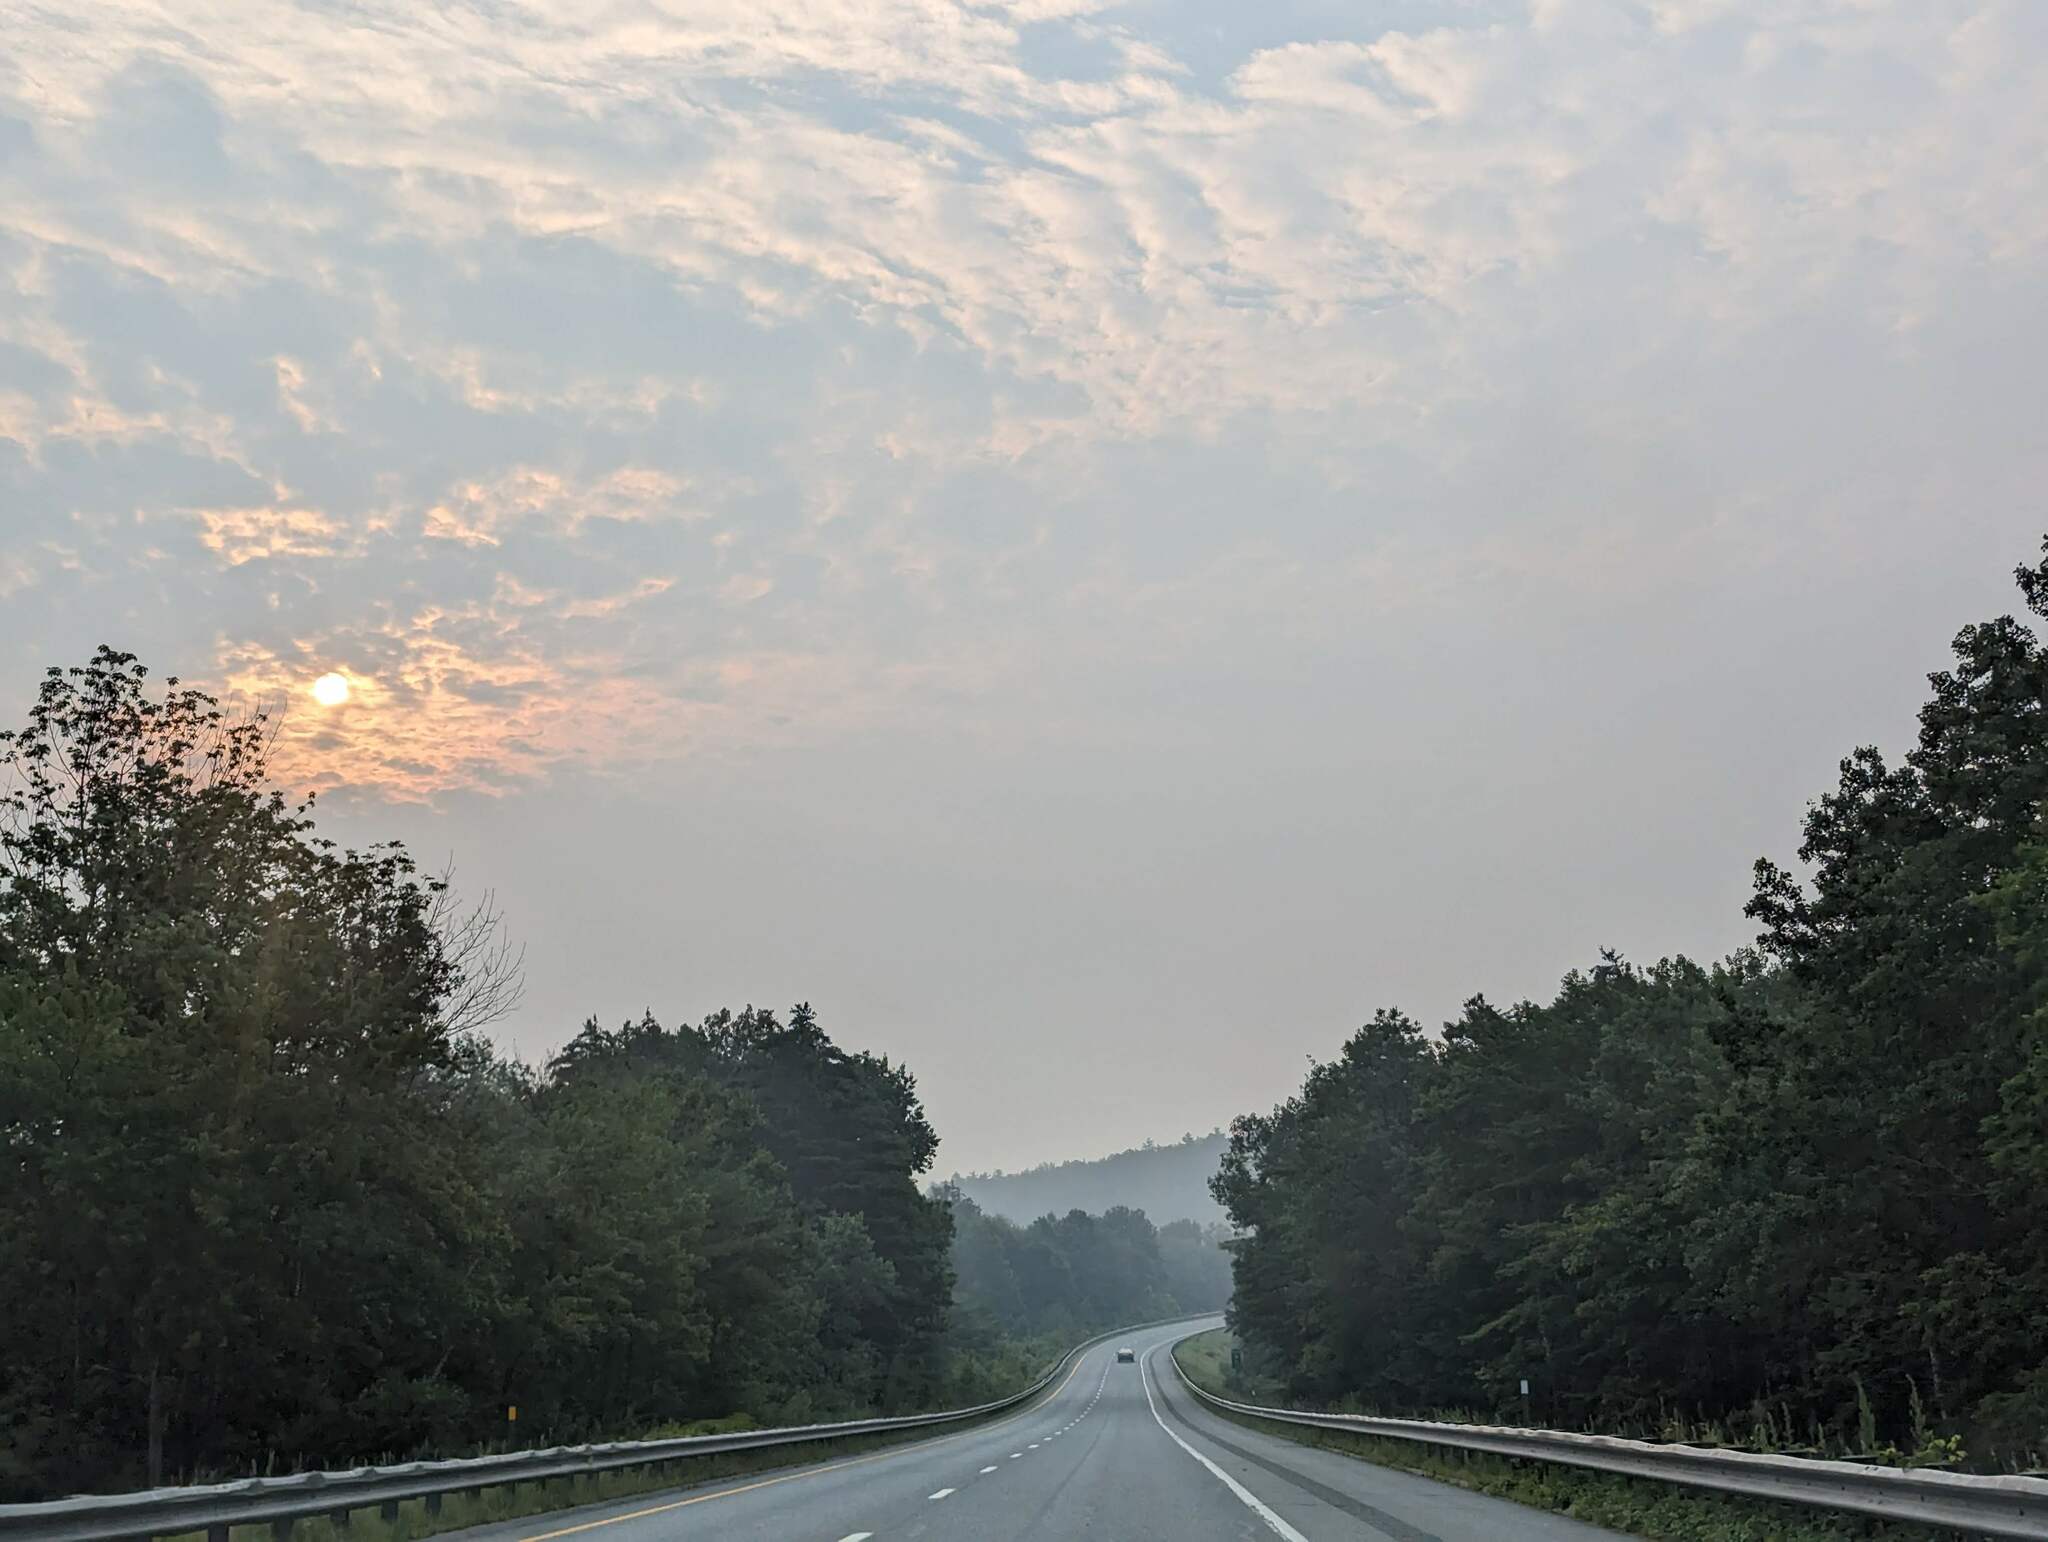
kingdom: Plantae
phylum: Tracheophyta
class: Pinopsida
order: Pinales
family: Pinaceae
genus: Pinus
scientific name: Pinus strobus
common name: Weymouth pine
